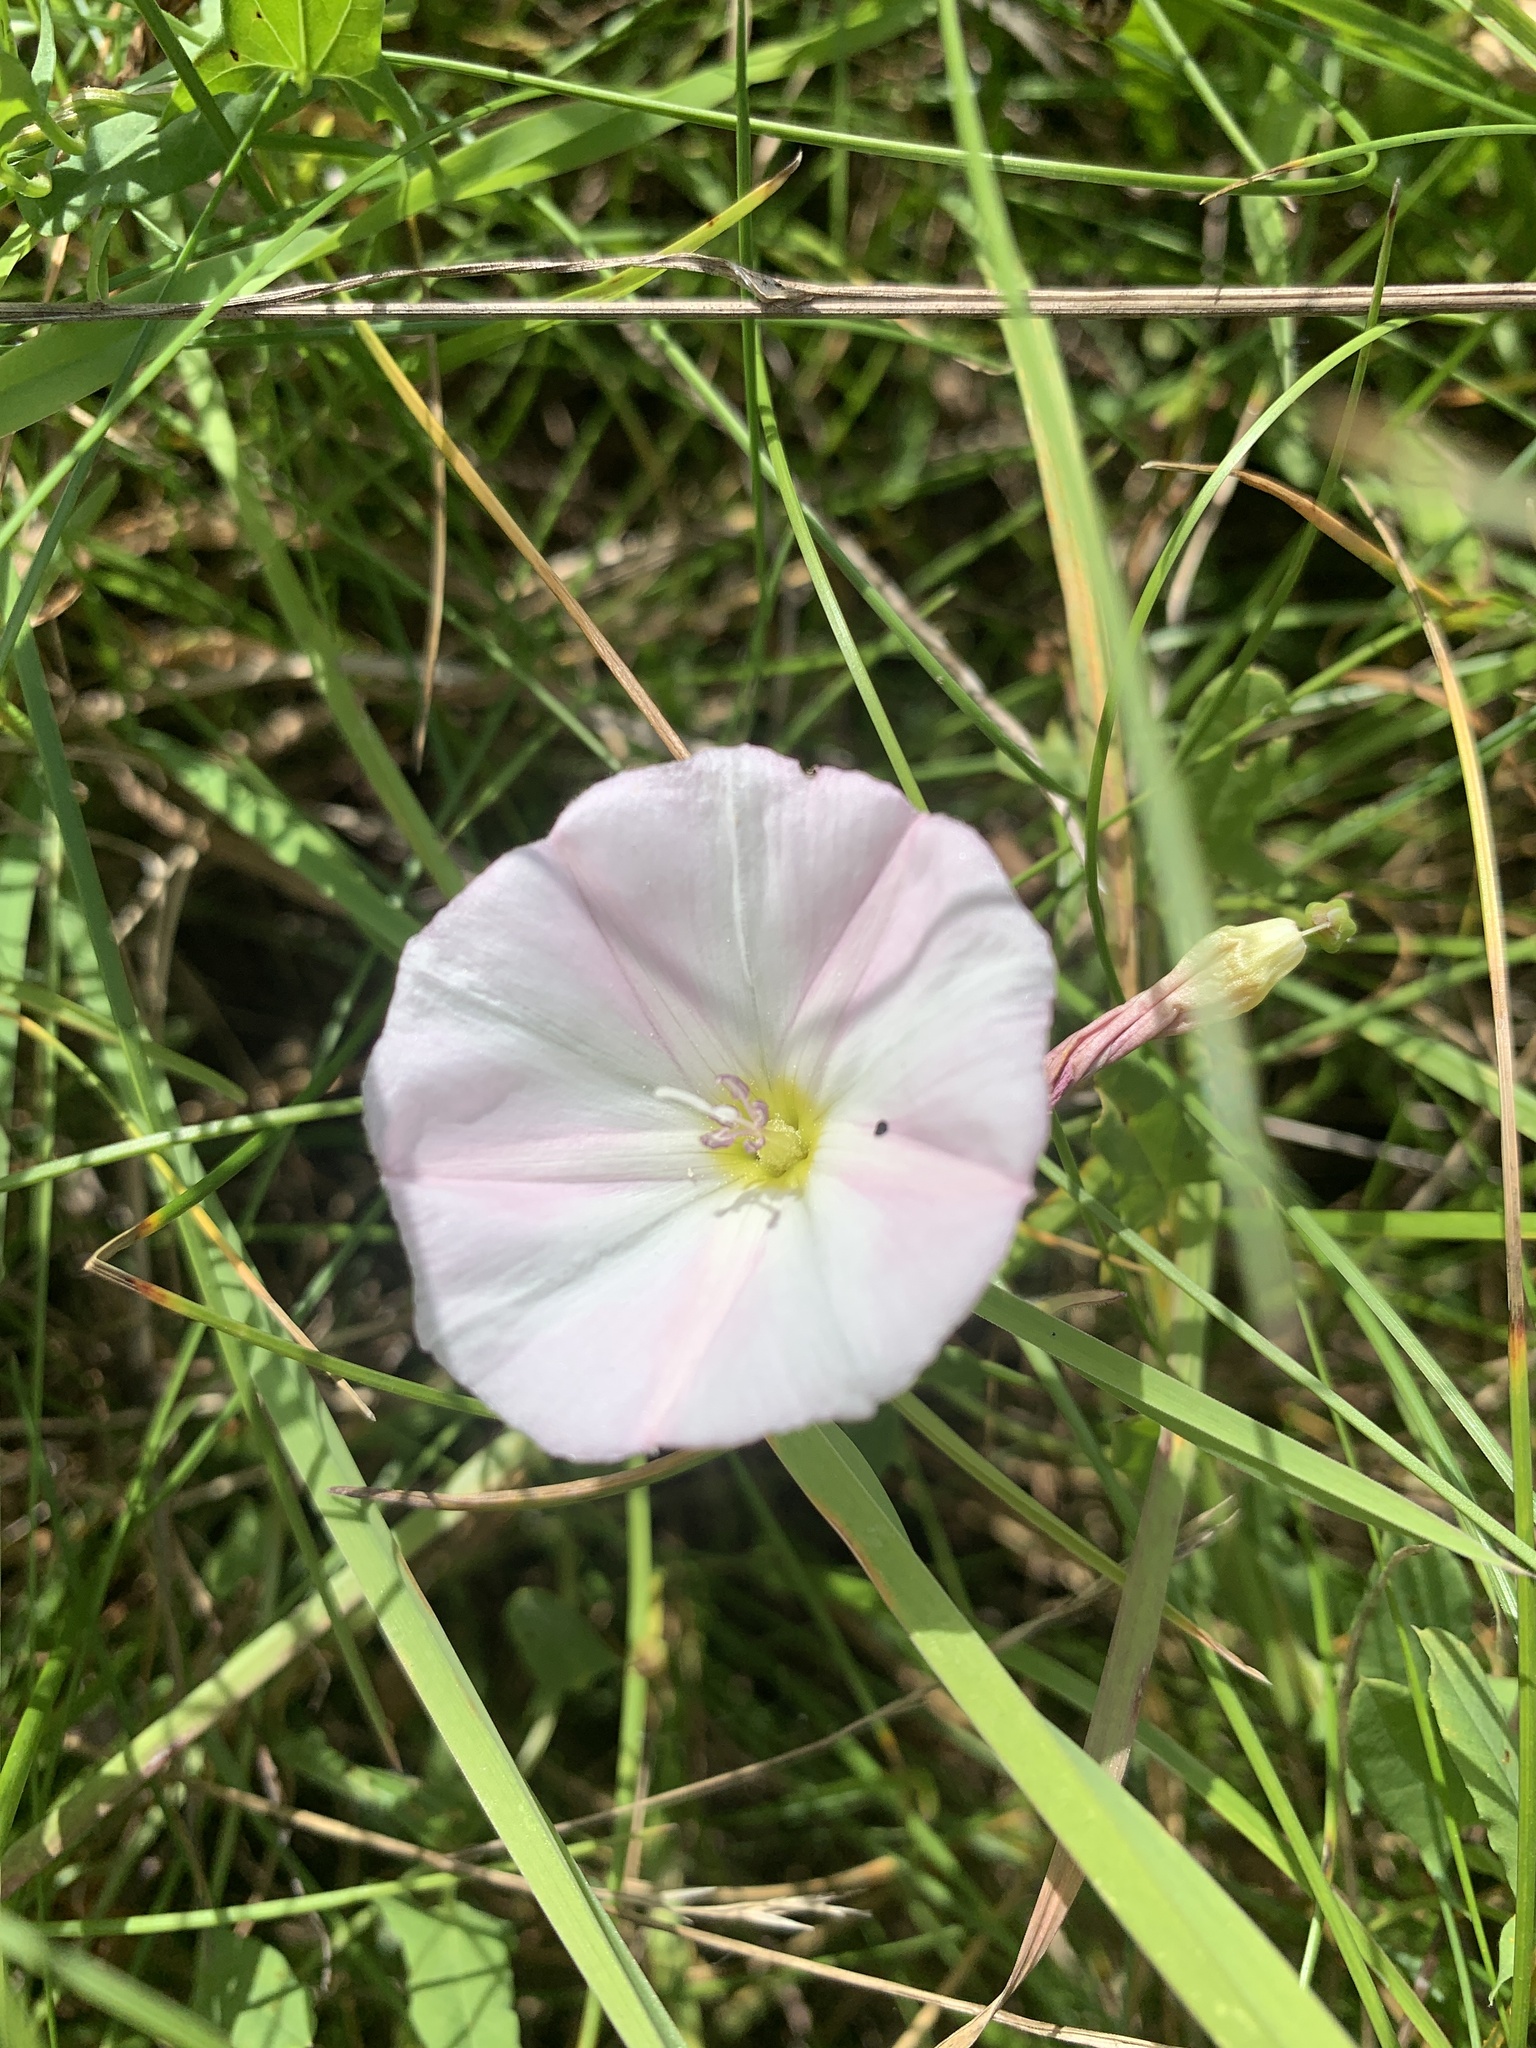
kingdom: Plantae
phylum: Tracheophyta
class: Magnoliopsida
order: Solanales
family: Convolvulaceae
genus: Convolvulus
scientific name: Convolvulus arvensis
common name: Field bindweed
